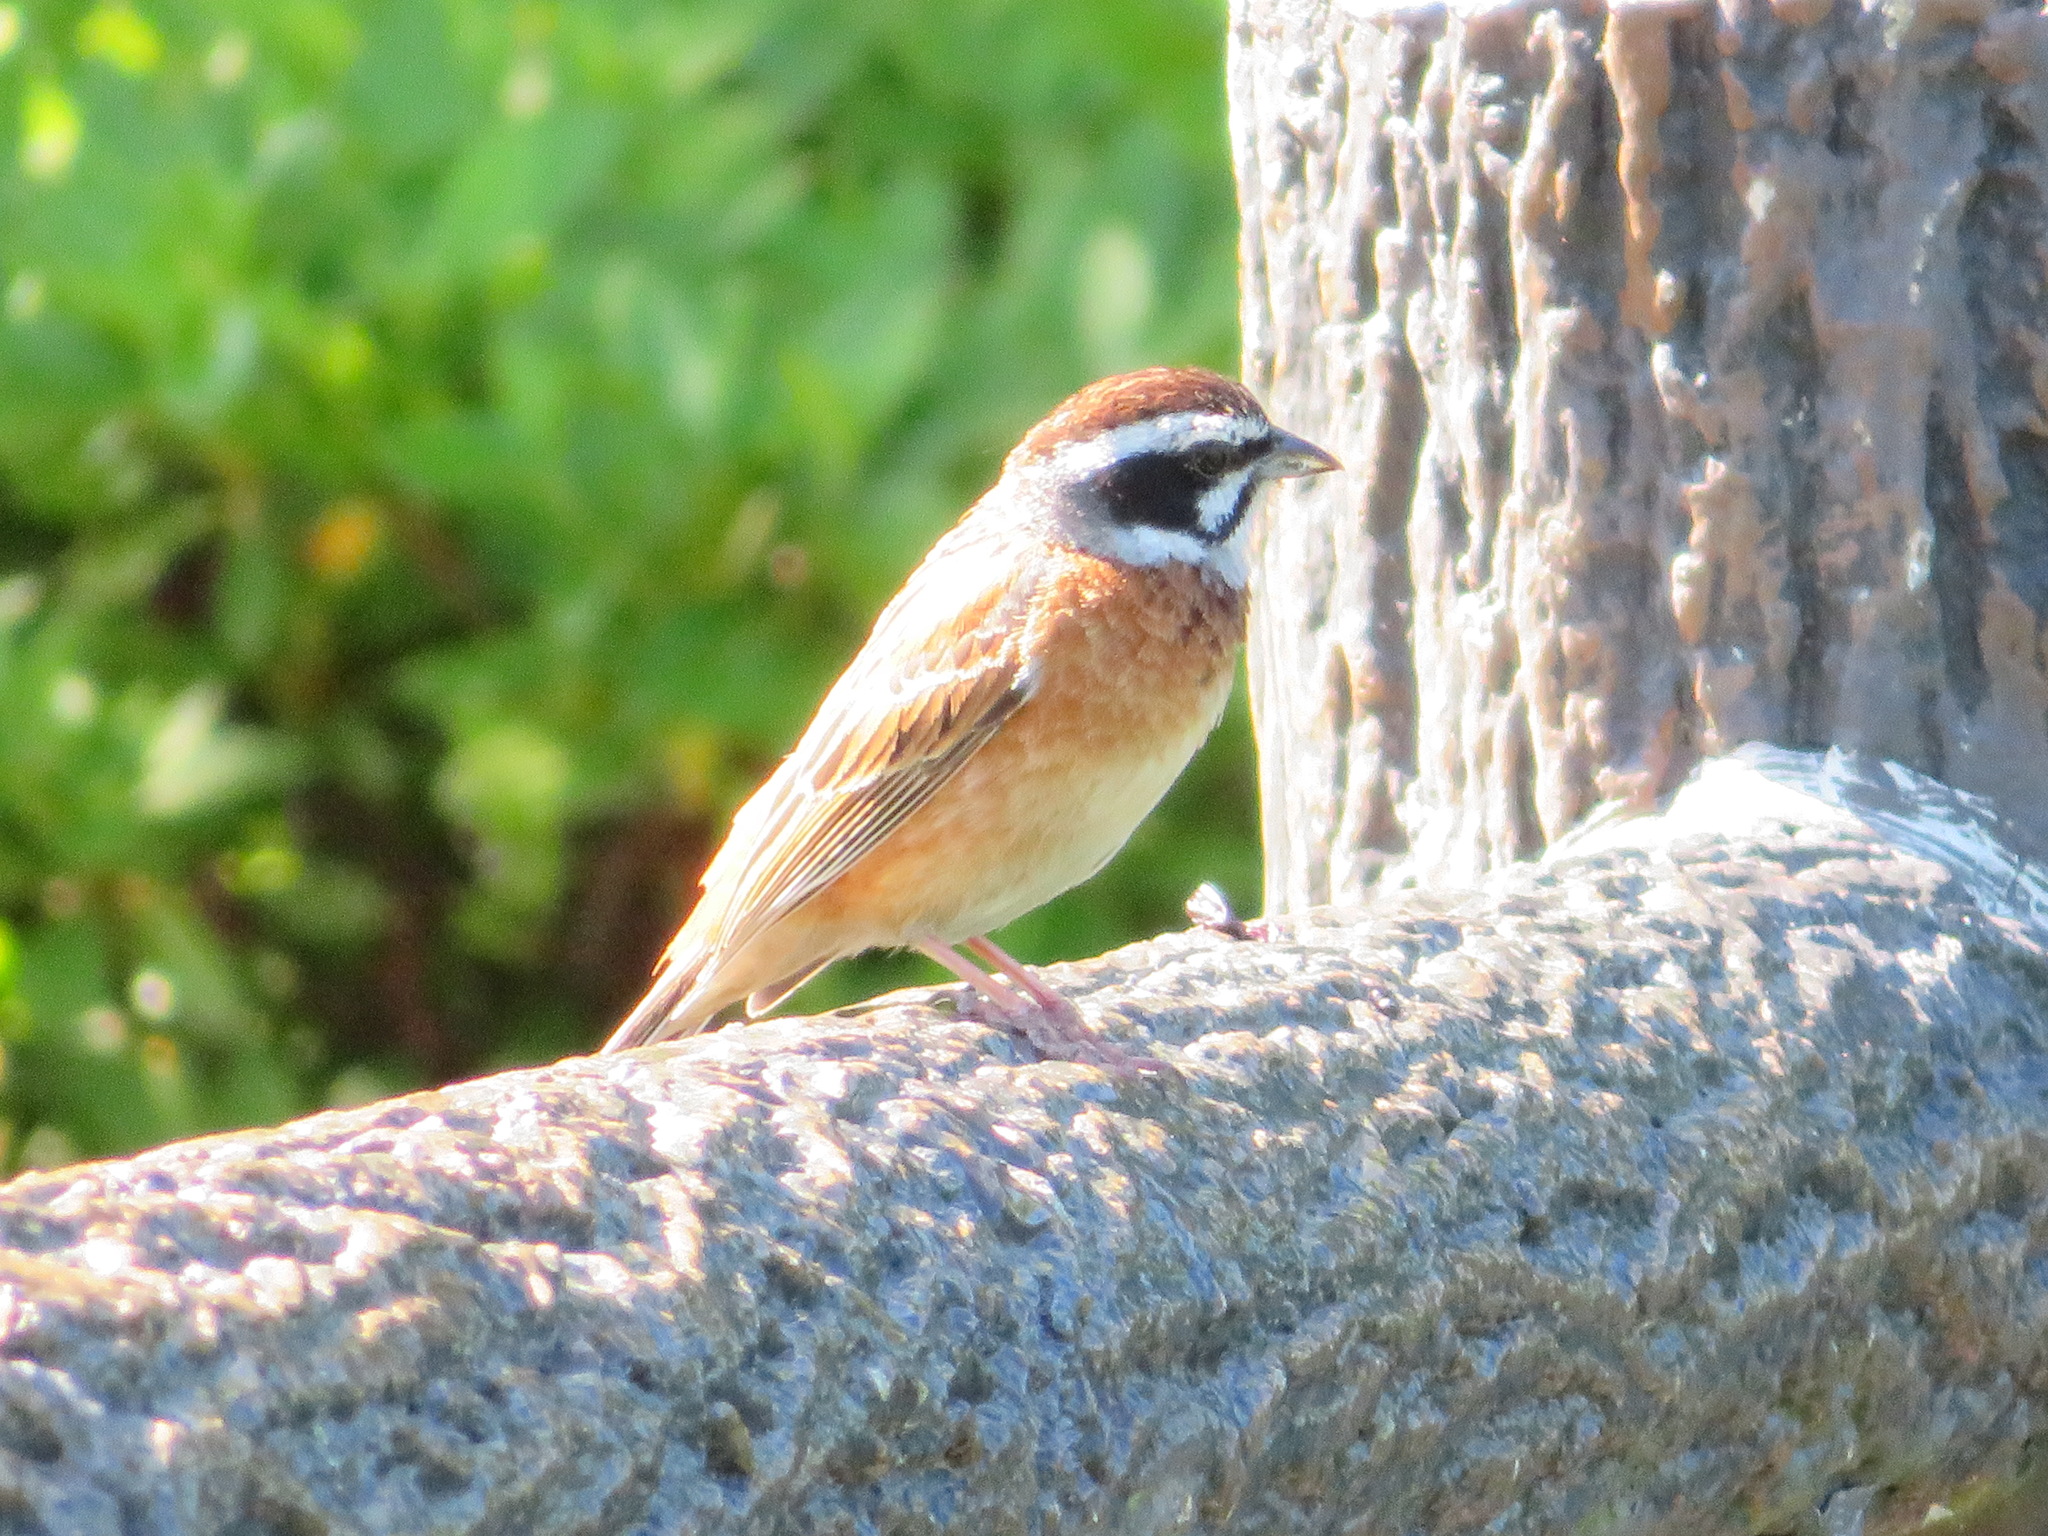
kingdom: Animalia
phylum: Chordata
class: Aves
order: Passeriformes
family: Emberizidae
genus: Emberiza
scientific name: Emberiza cioides
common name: Meadow bunting
